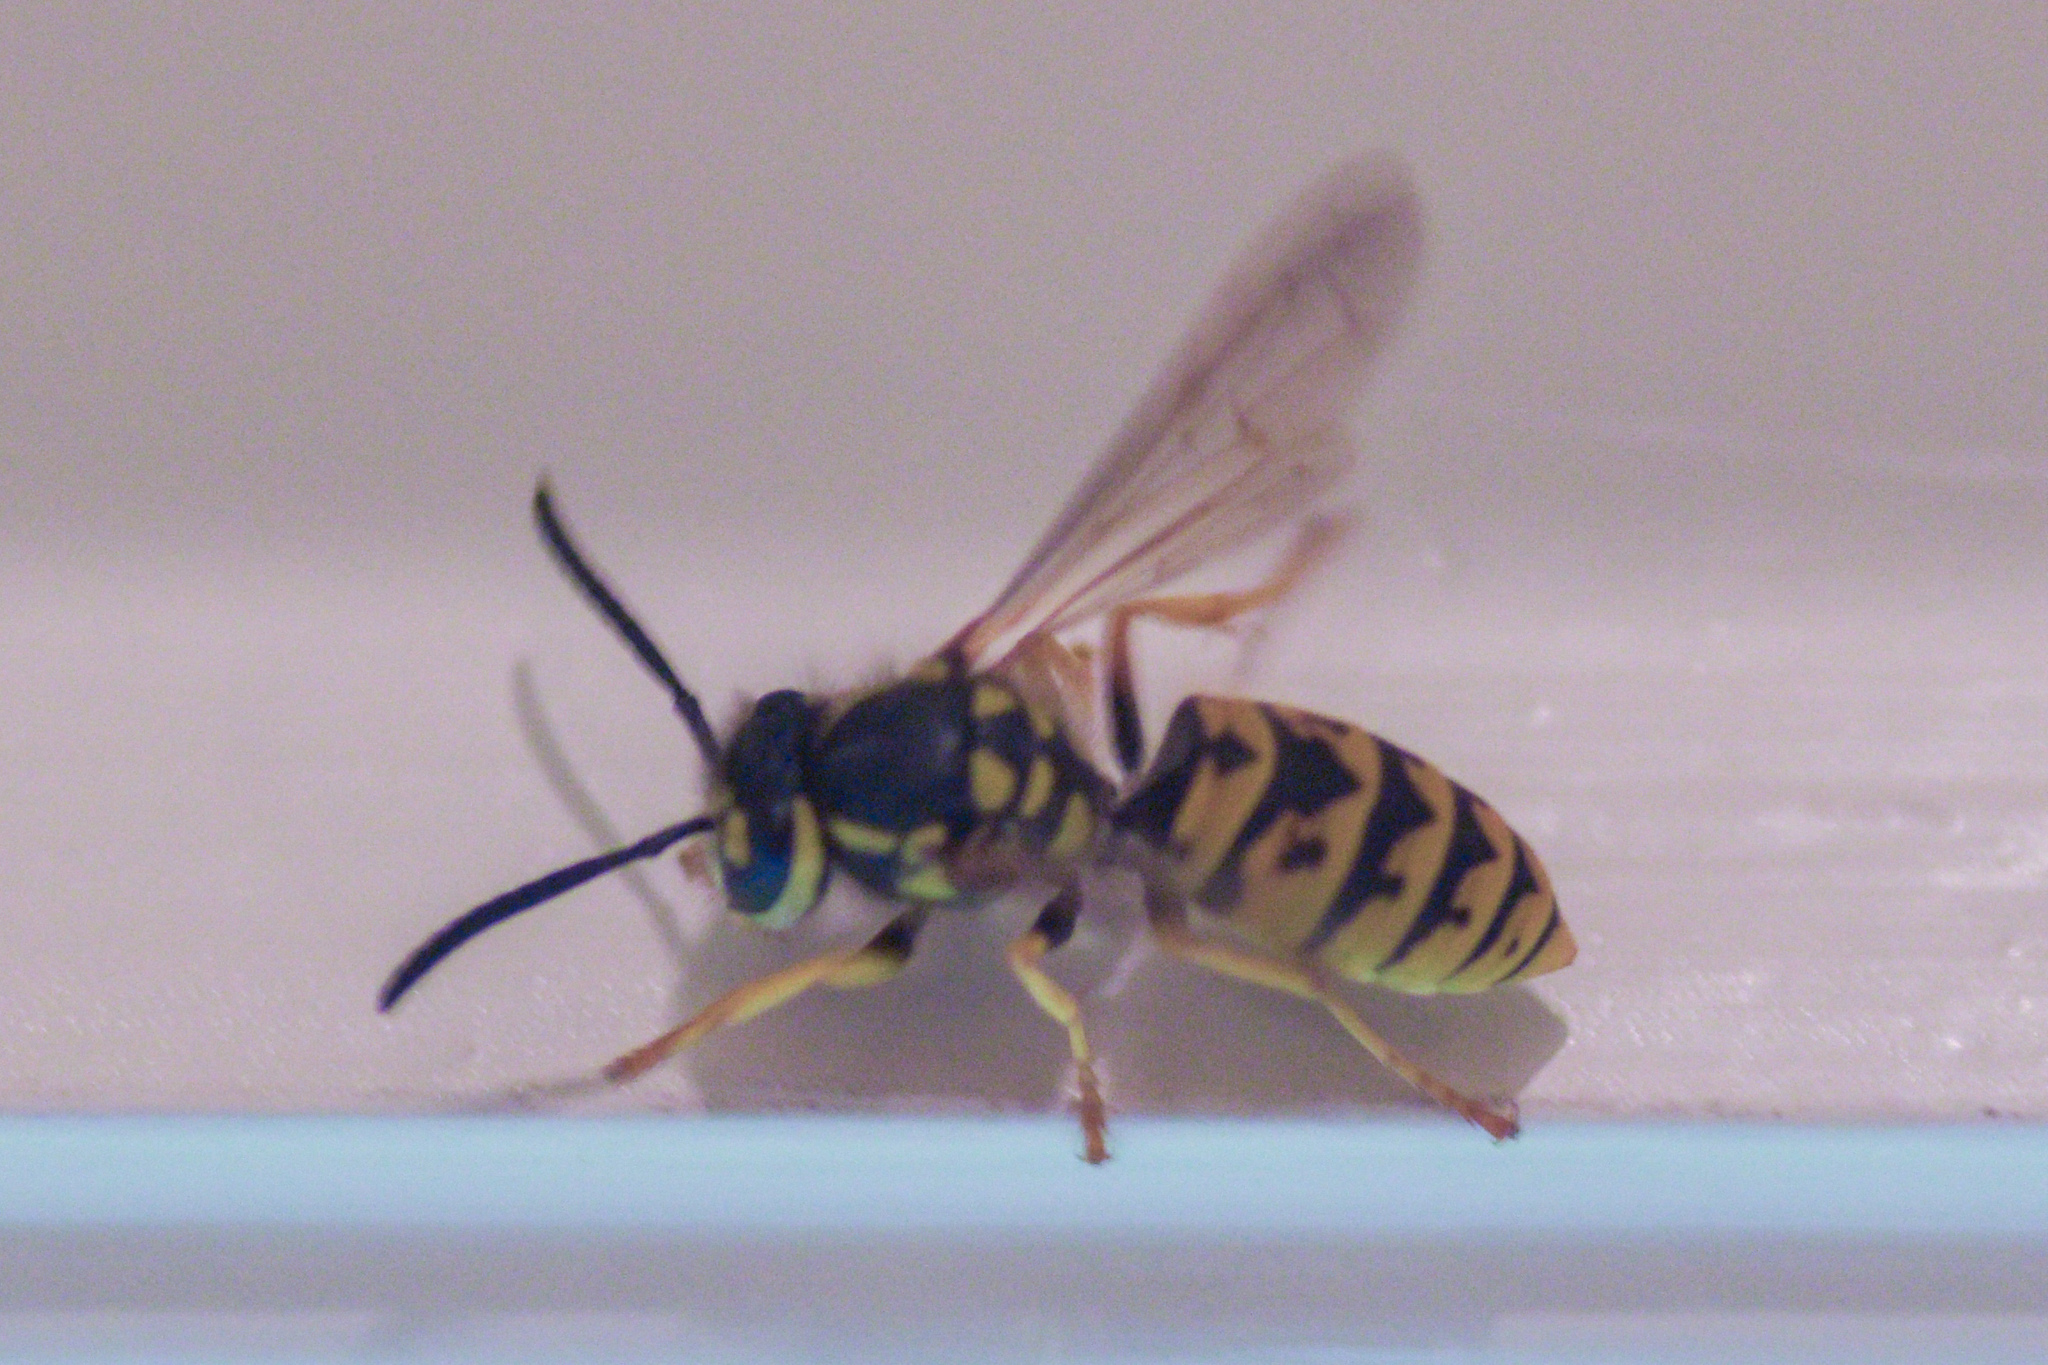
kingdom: Animalia
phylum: Arthropoda
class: Insecta
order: Hymenoptera
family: Vespidae
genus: Vespula
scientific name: Vespula germanica
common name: German wasp
